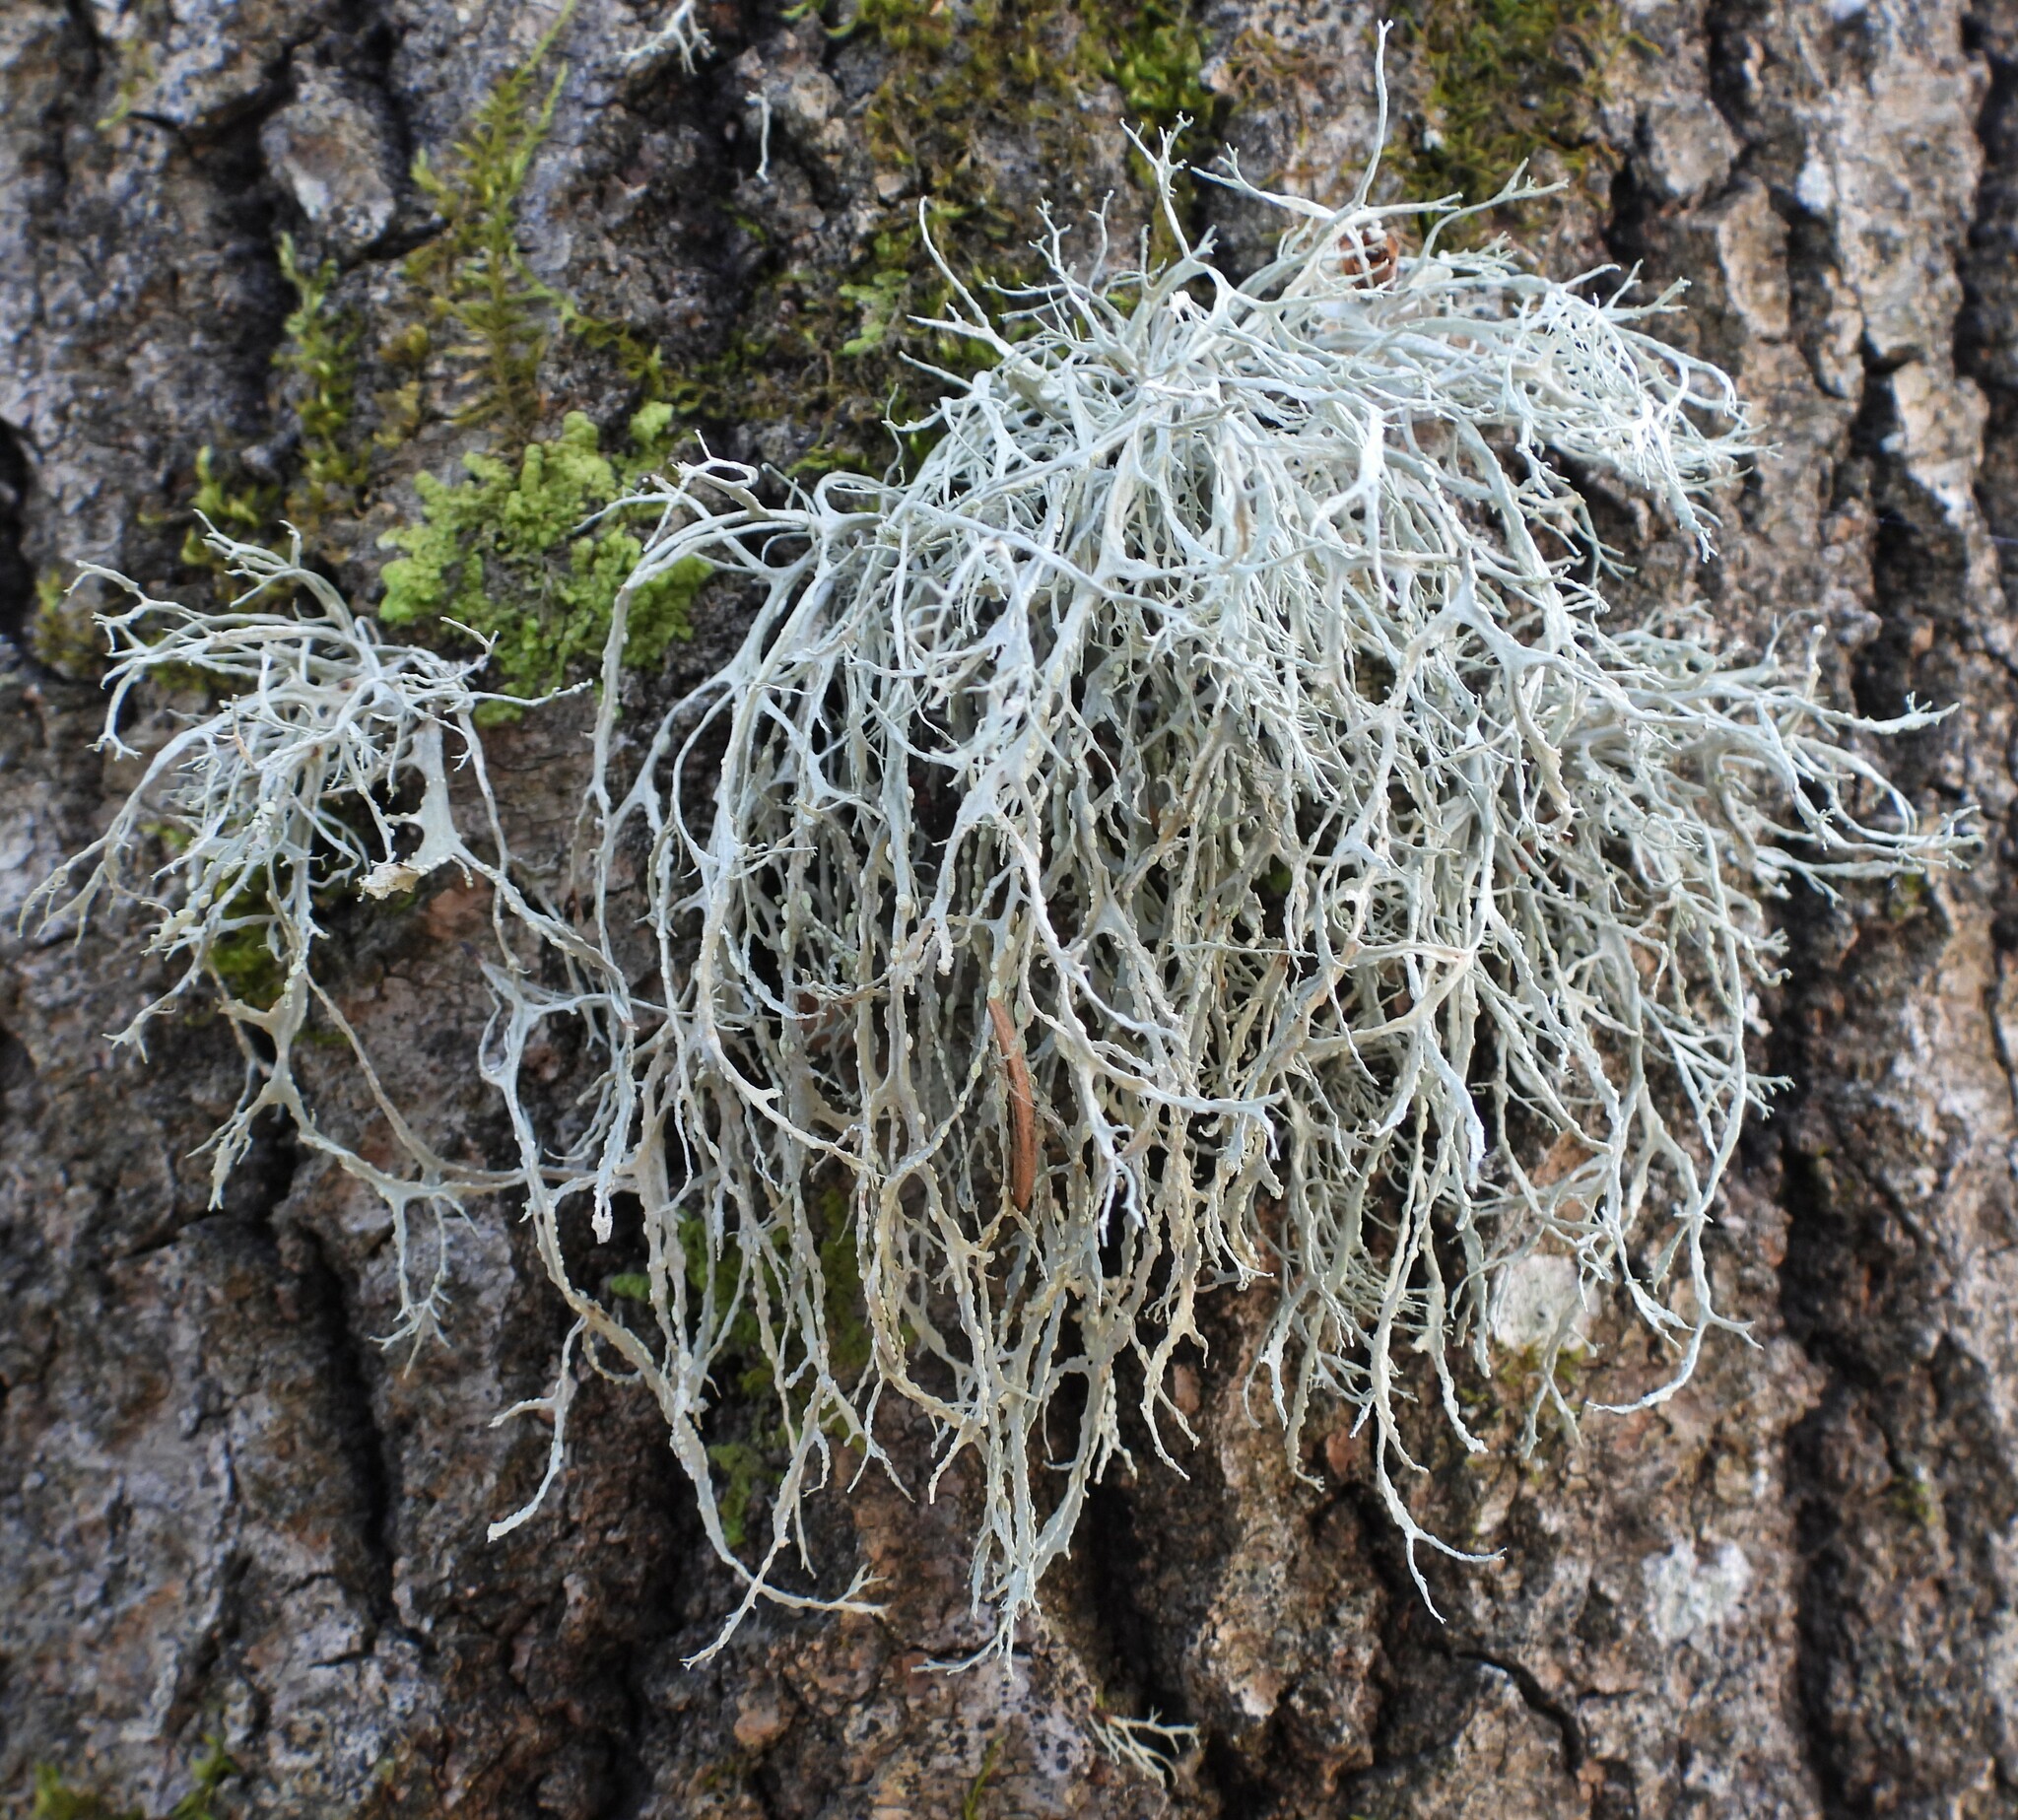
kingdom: Fungi
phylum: Ascomycota
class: Lecanoromycetes
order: Lecanorales
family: Ramalinaceae
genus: Ramalina
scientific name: Ramalina farinacea
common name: Farinose cartilage lichen
